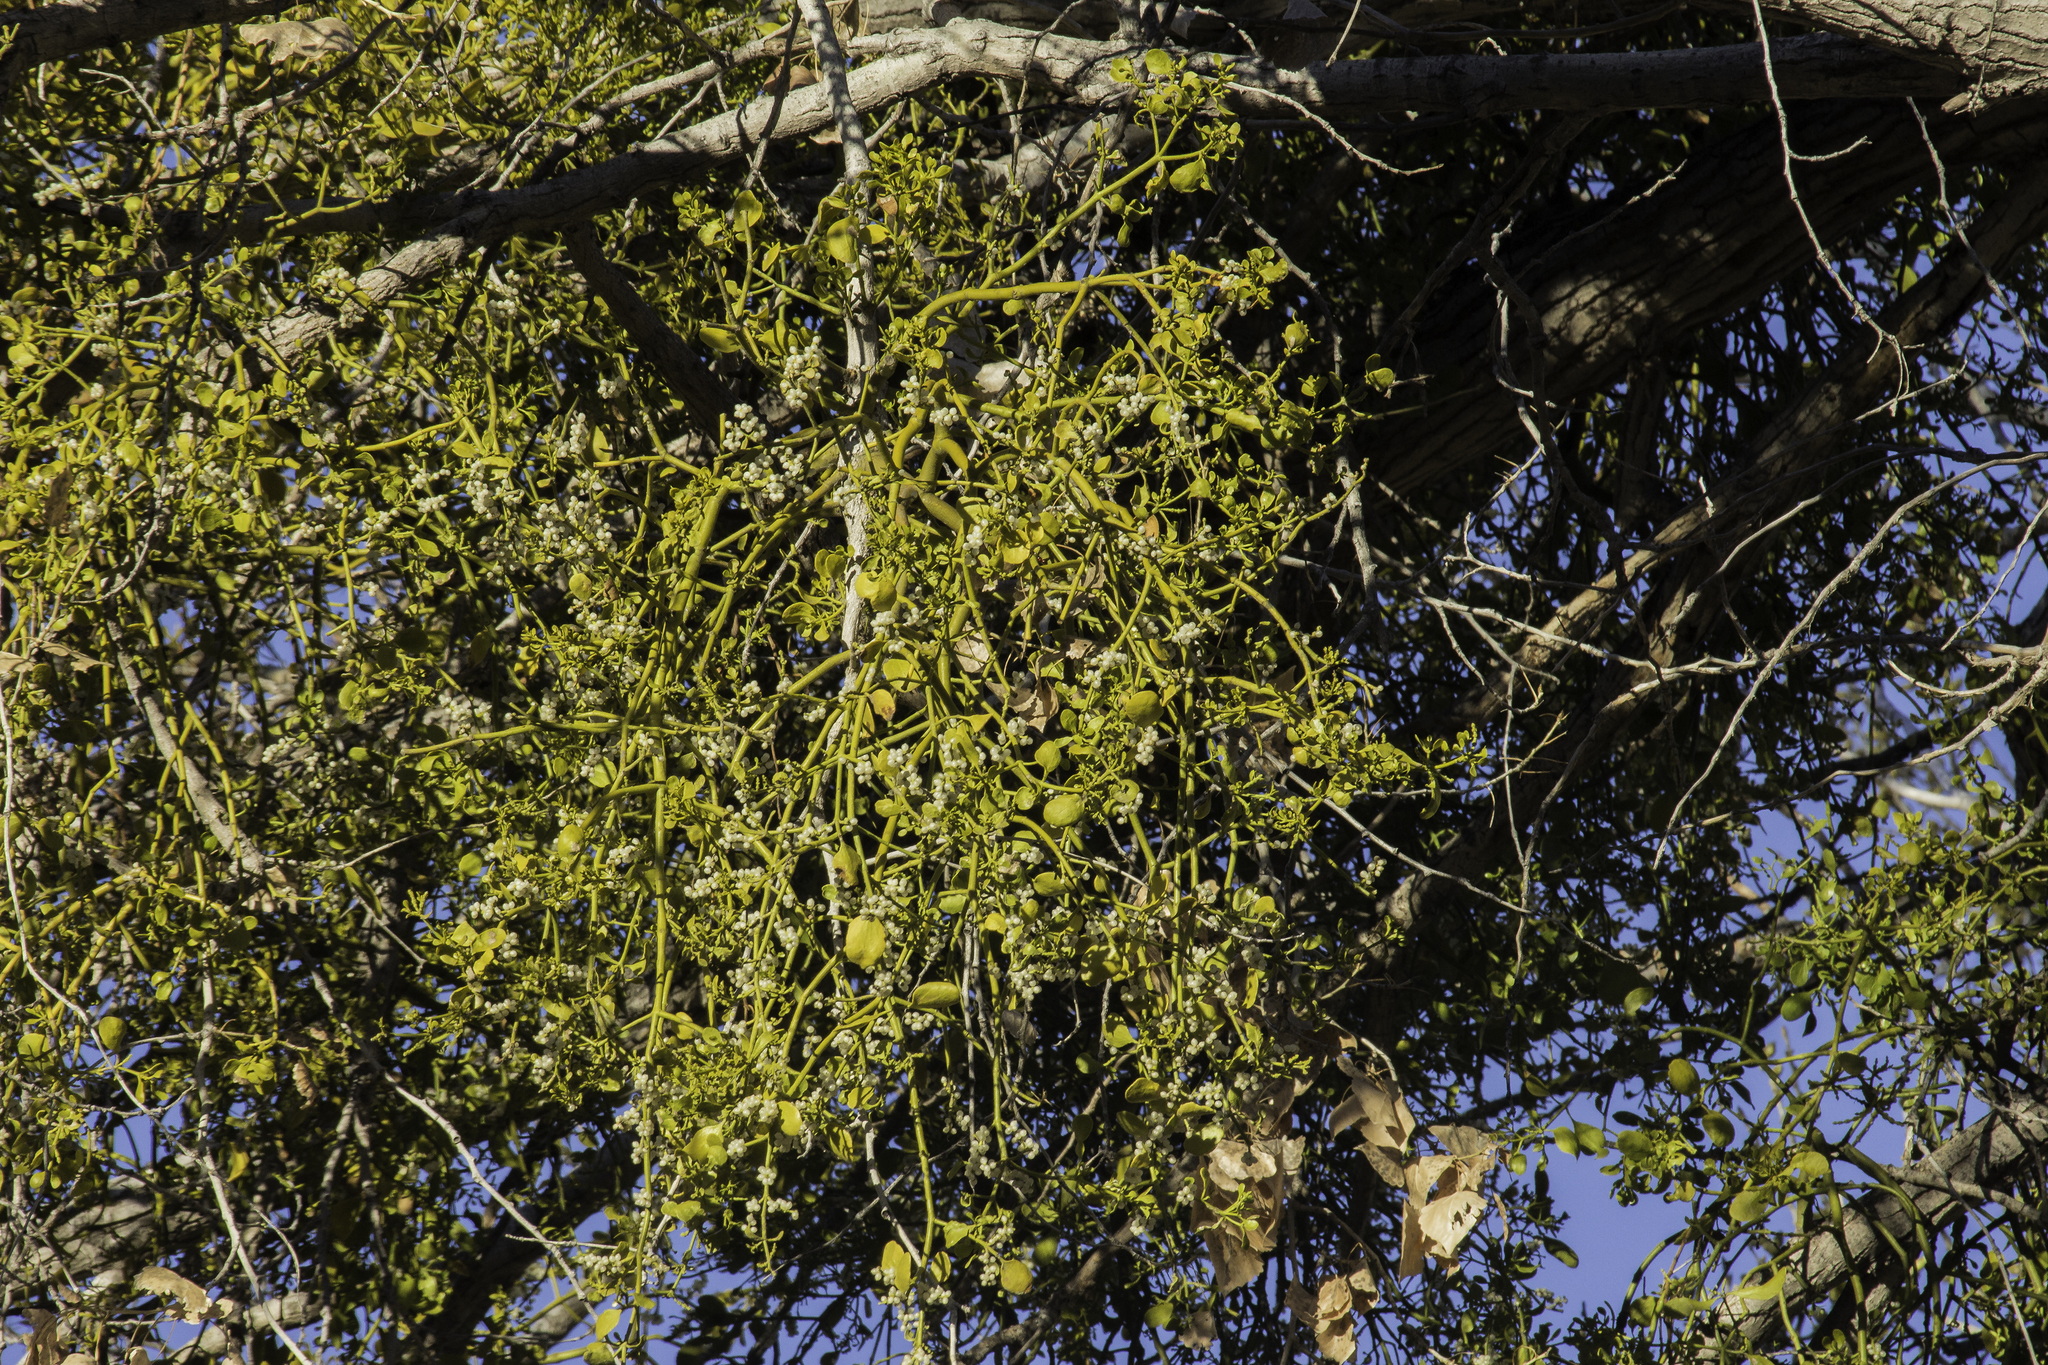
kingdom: Plantae
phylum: Tracheophyta
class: Magnoliopsida
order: Santalales
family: Viscaceae
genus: Phoradendron
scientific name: Phoradendron
